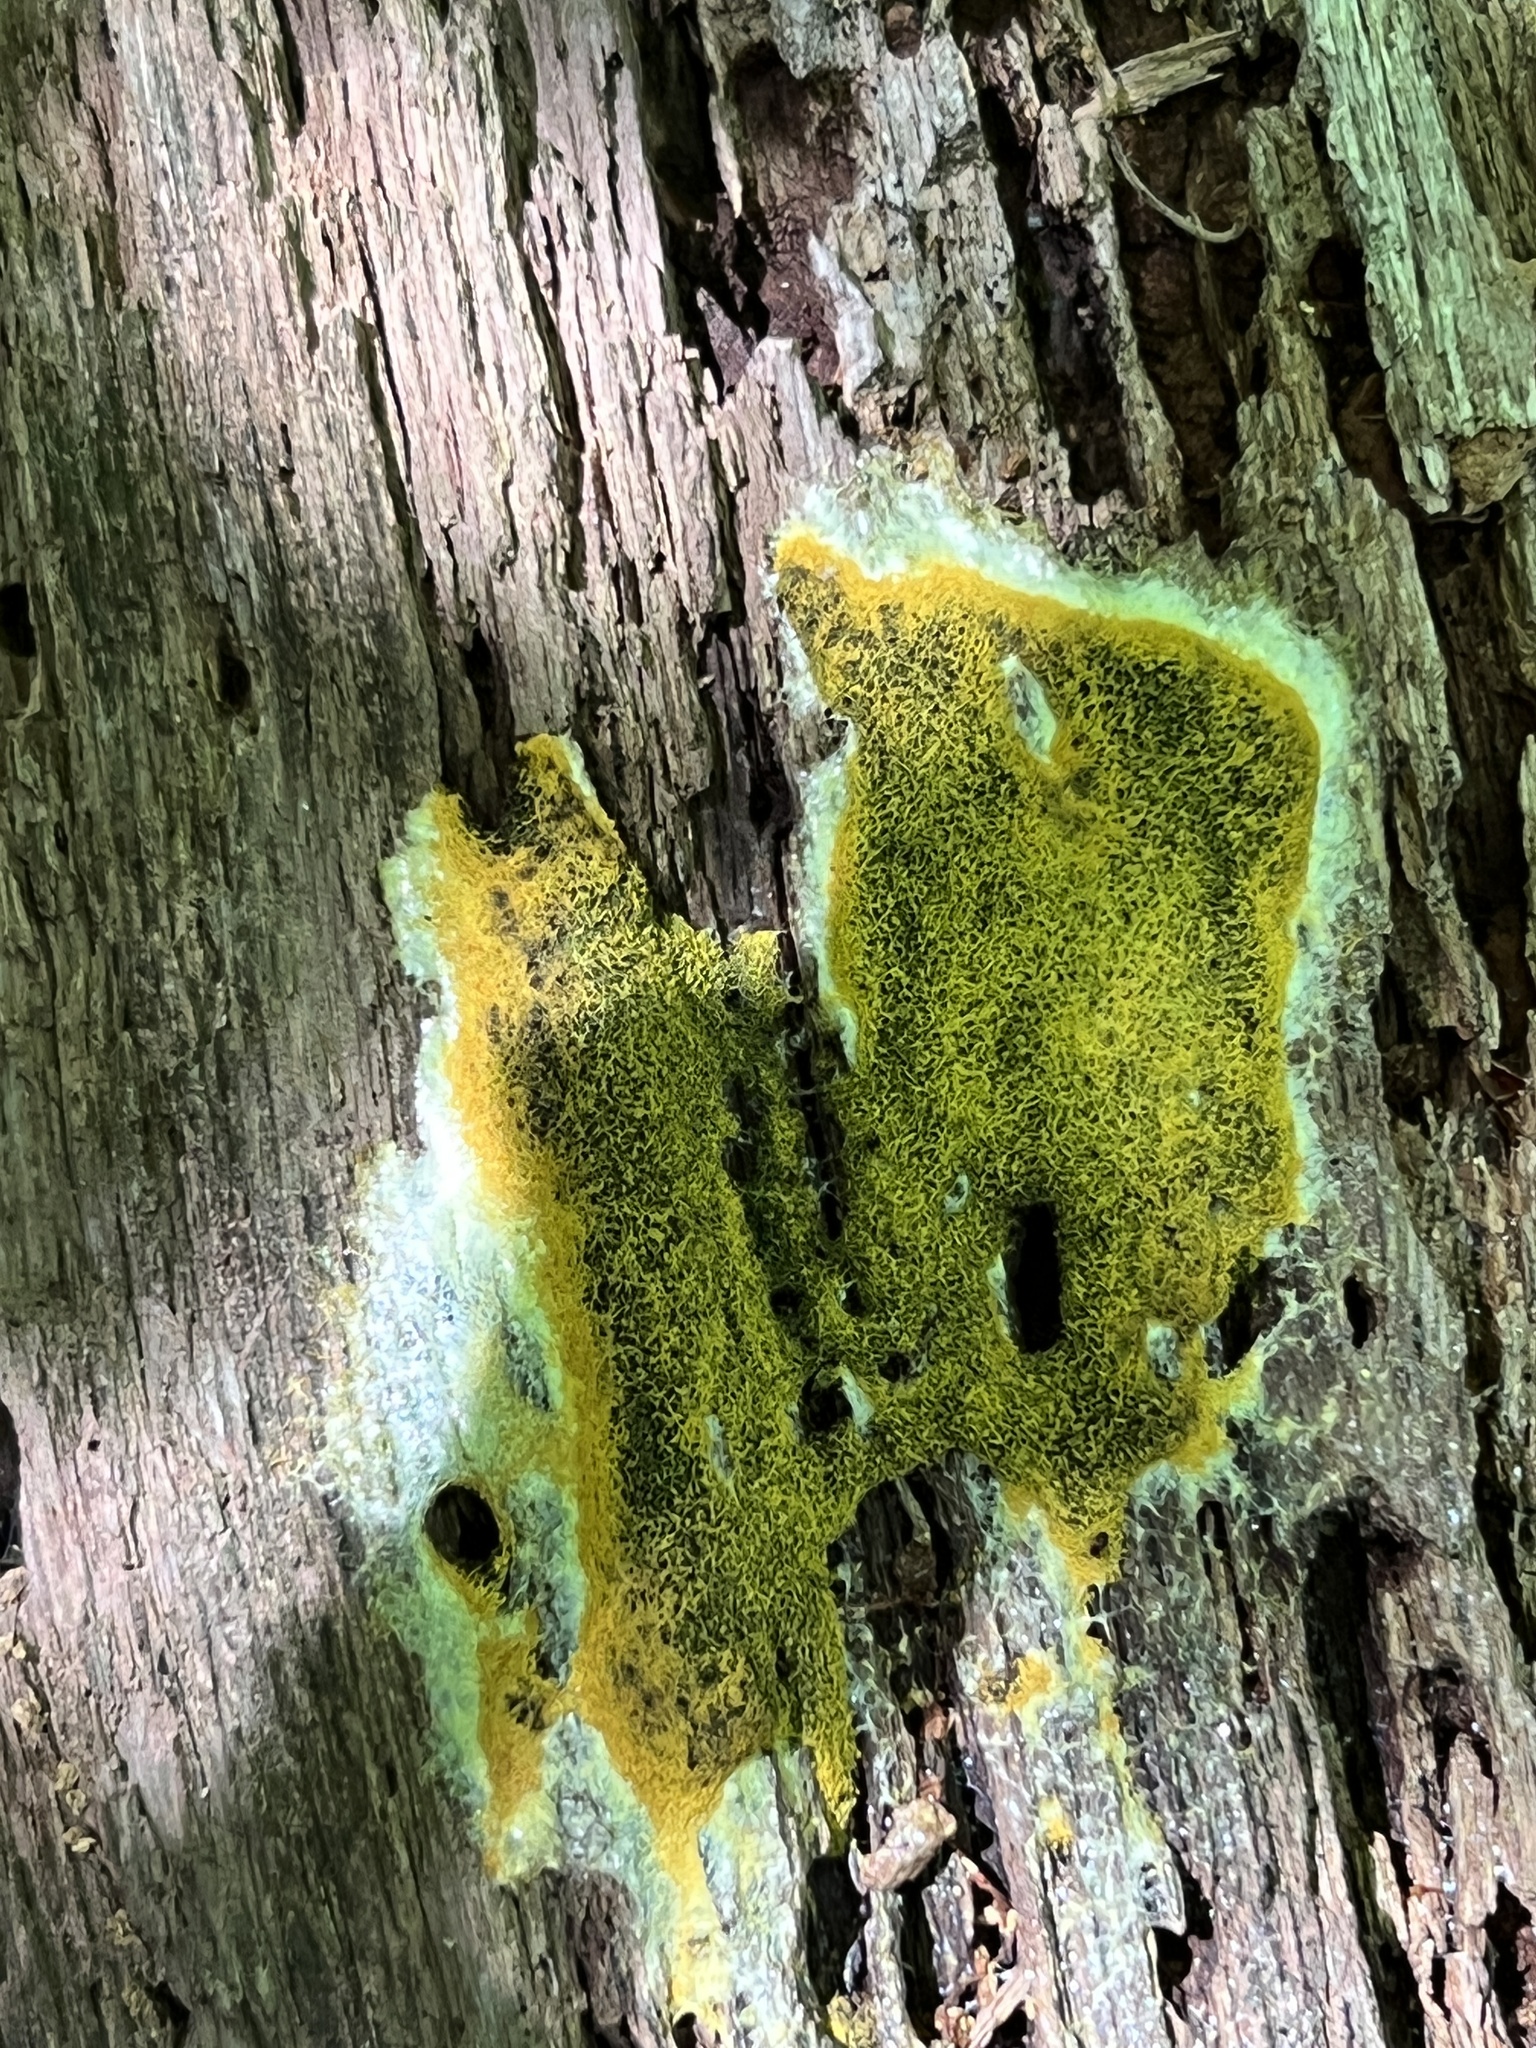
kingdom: Protozoa
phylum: Mycetozoa
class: Myxomycetes
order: Physarales
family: Physaraceae
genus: Fuligo
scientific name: Fuligo septica
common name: Dog vomit slime mold
